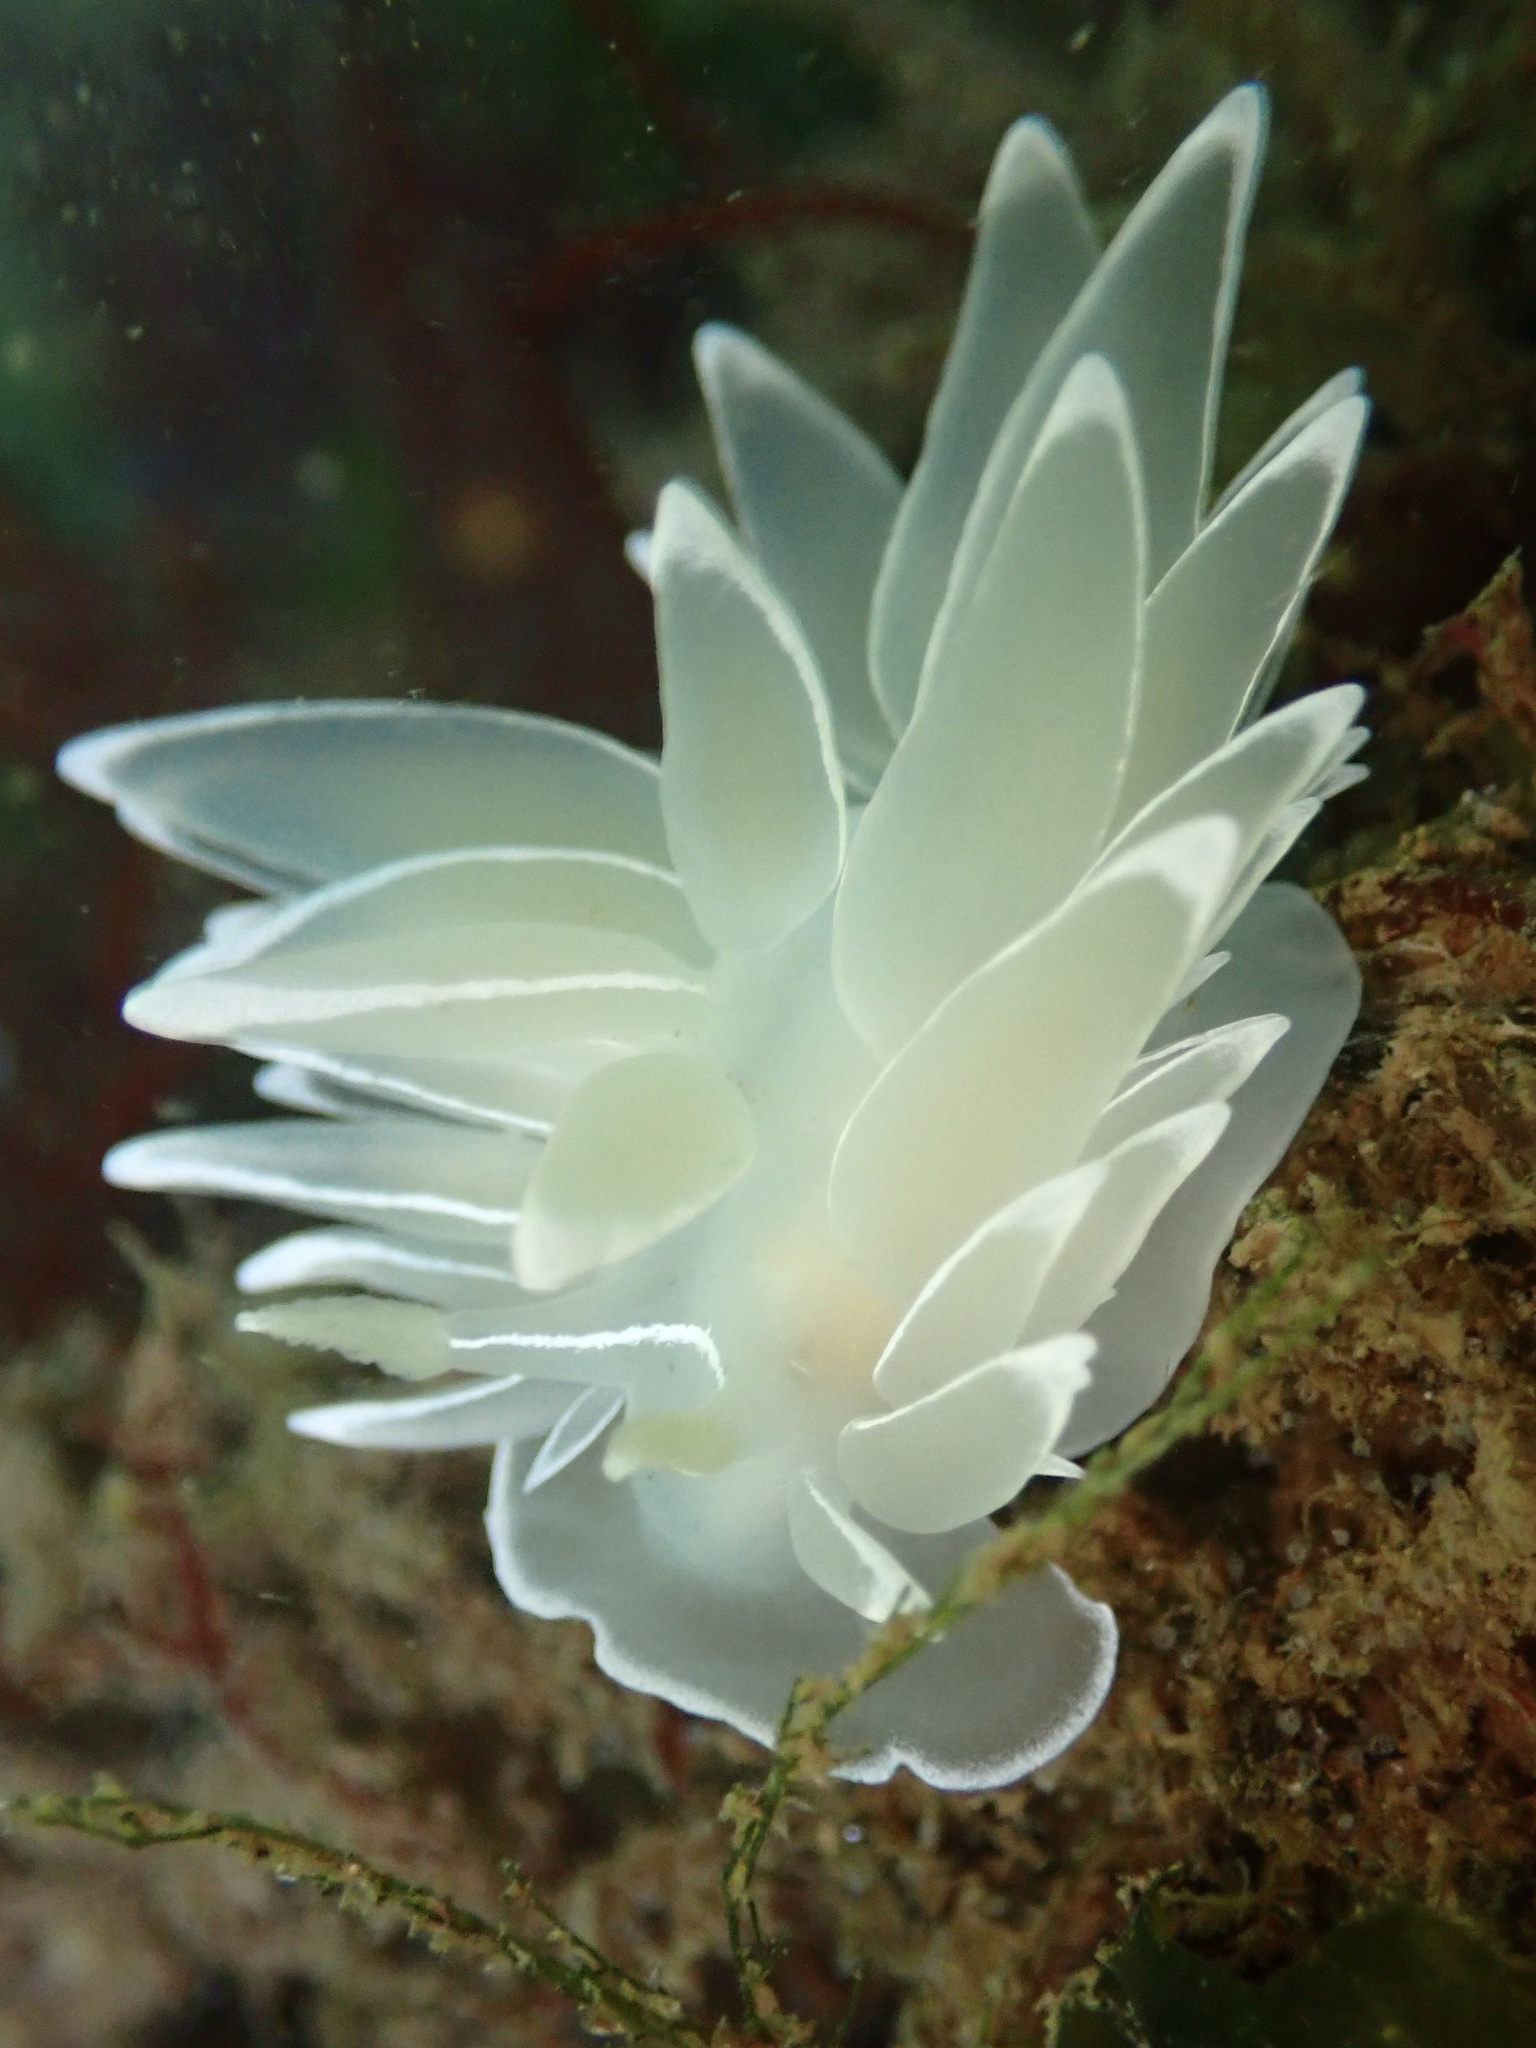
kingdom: Animalia
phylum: Mollusca
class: Gastropoda
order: Nudibranchia
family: Dironidae
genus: Dirona
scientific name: Dirona albolineata
